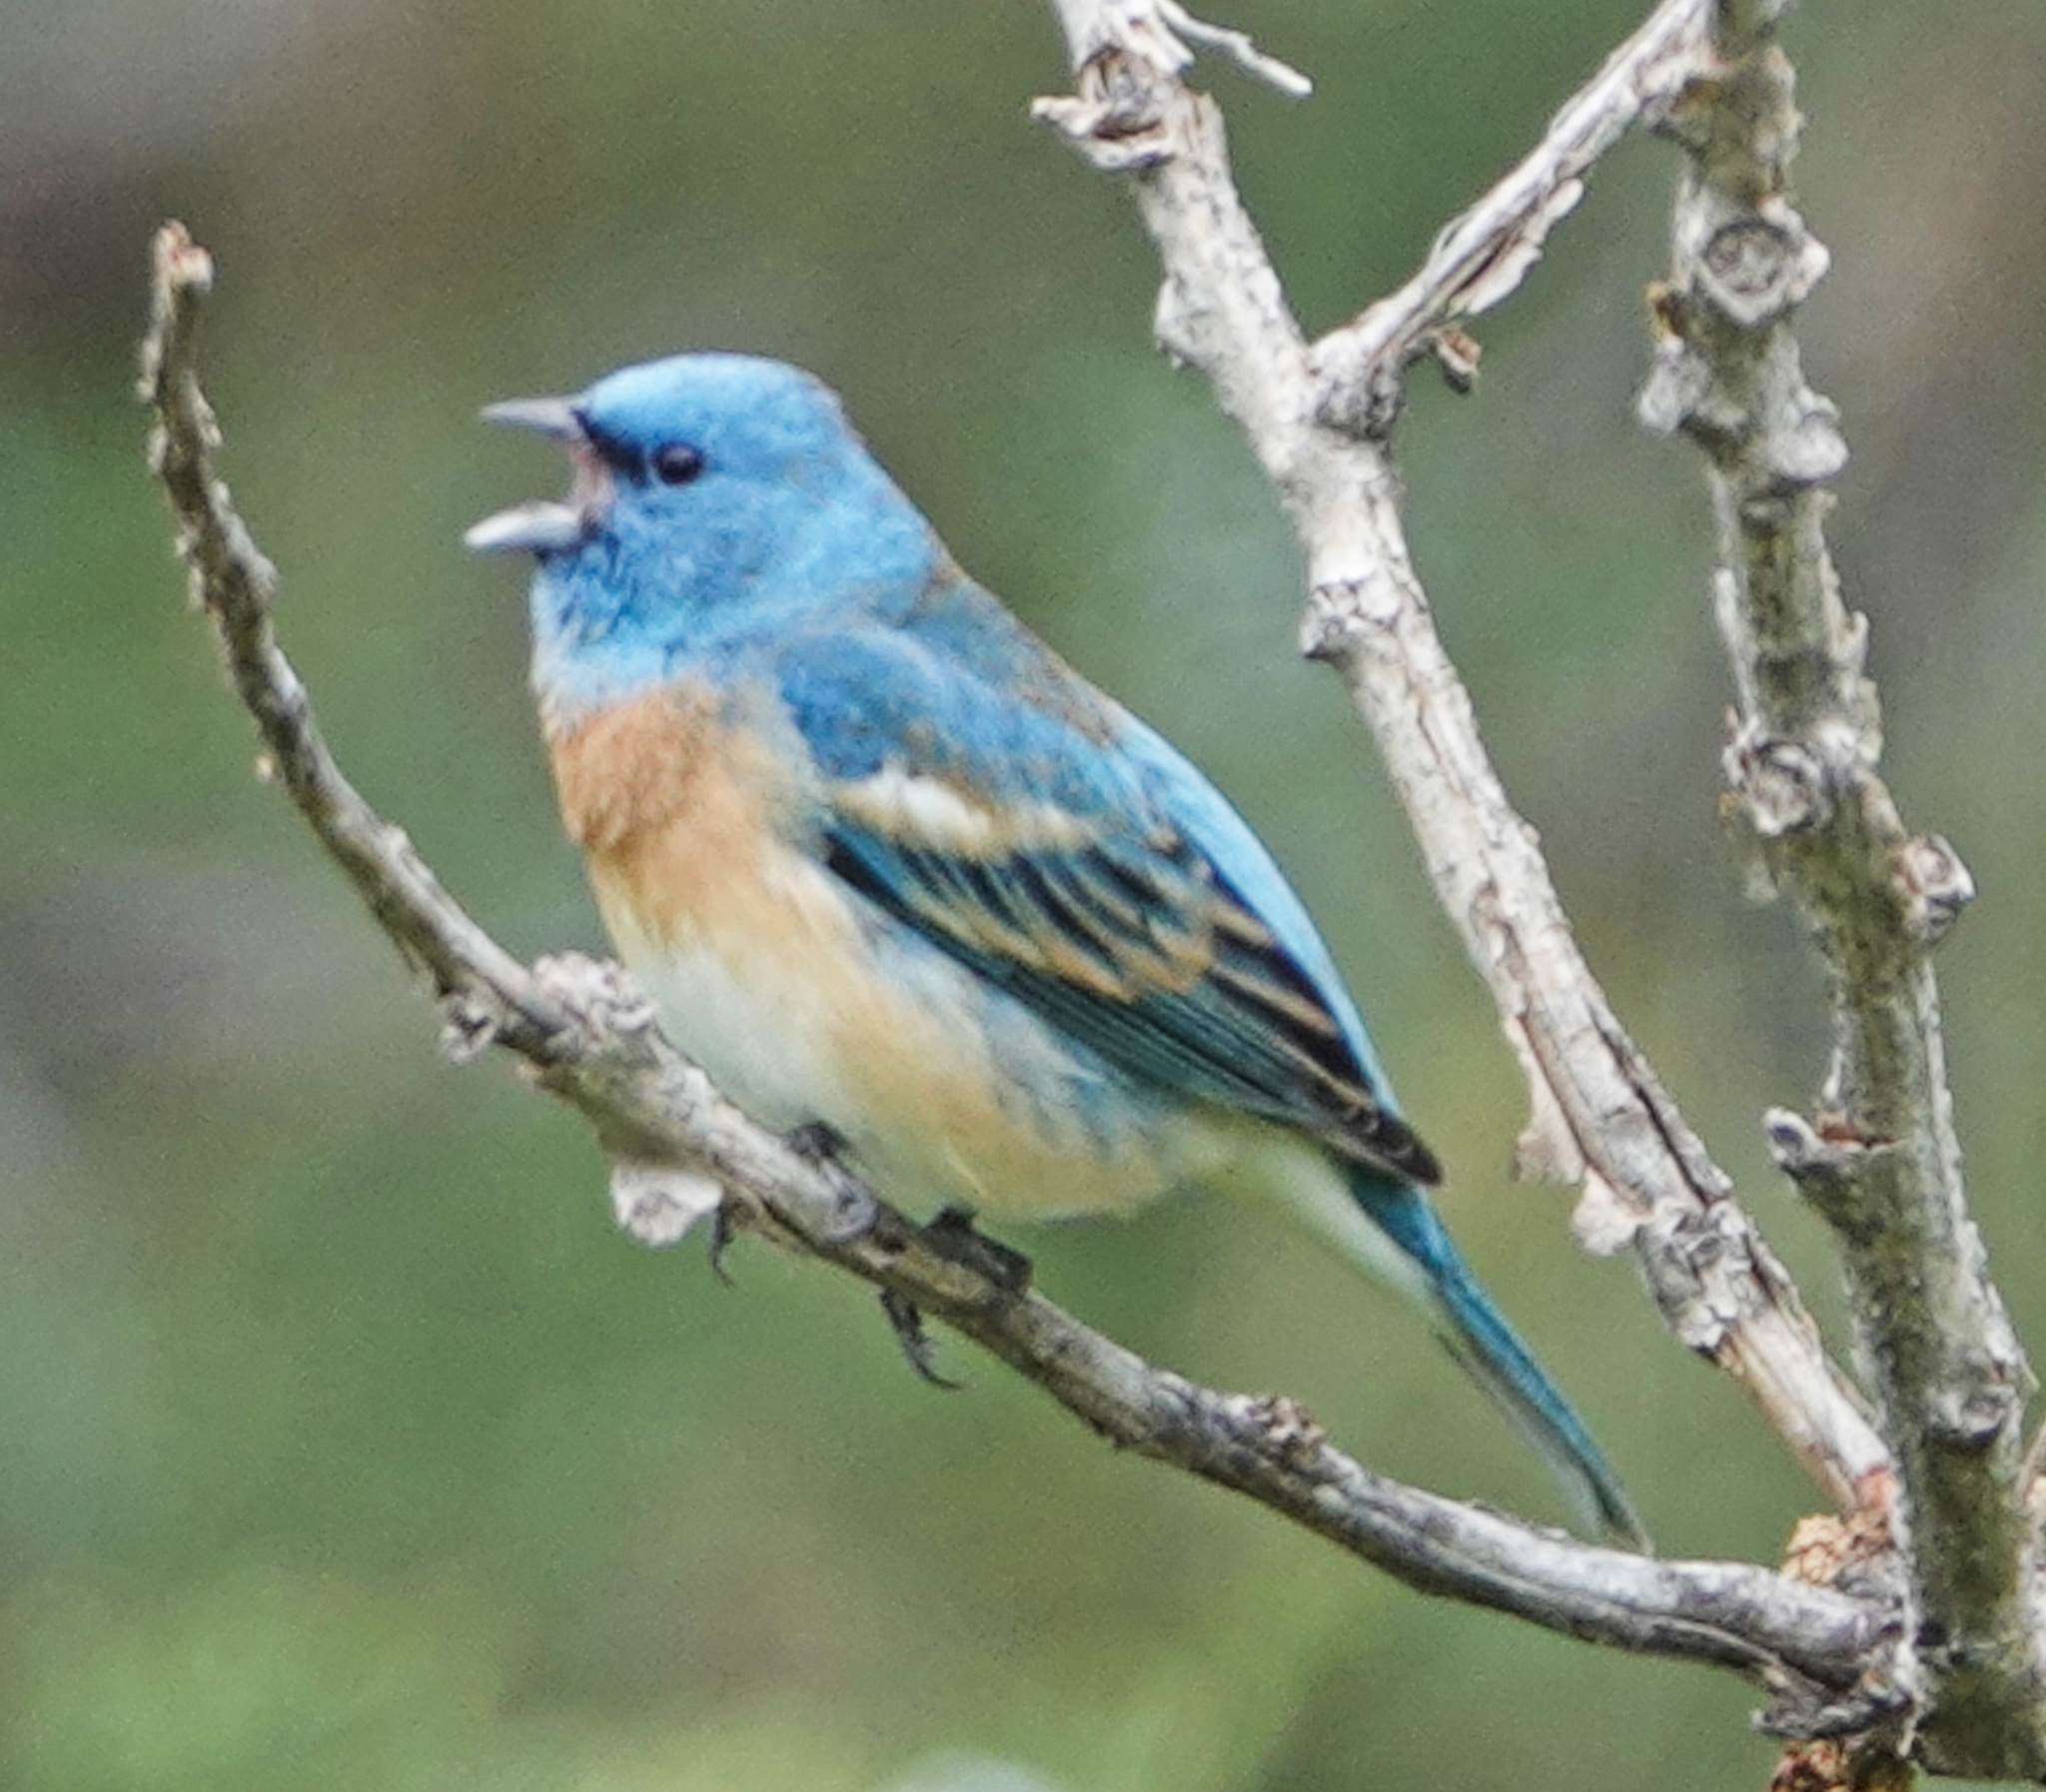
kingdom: Animalia
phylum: Chordata
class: Aves
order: Passeriformes
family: Cardinalidae
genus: Passerina
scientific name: Passerina amoena
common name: Lazuli bunting
